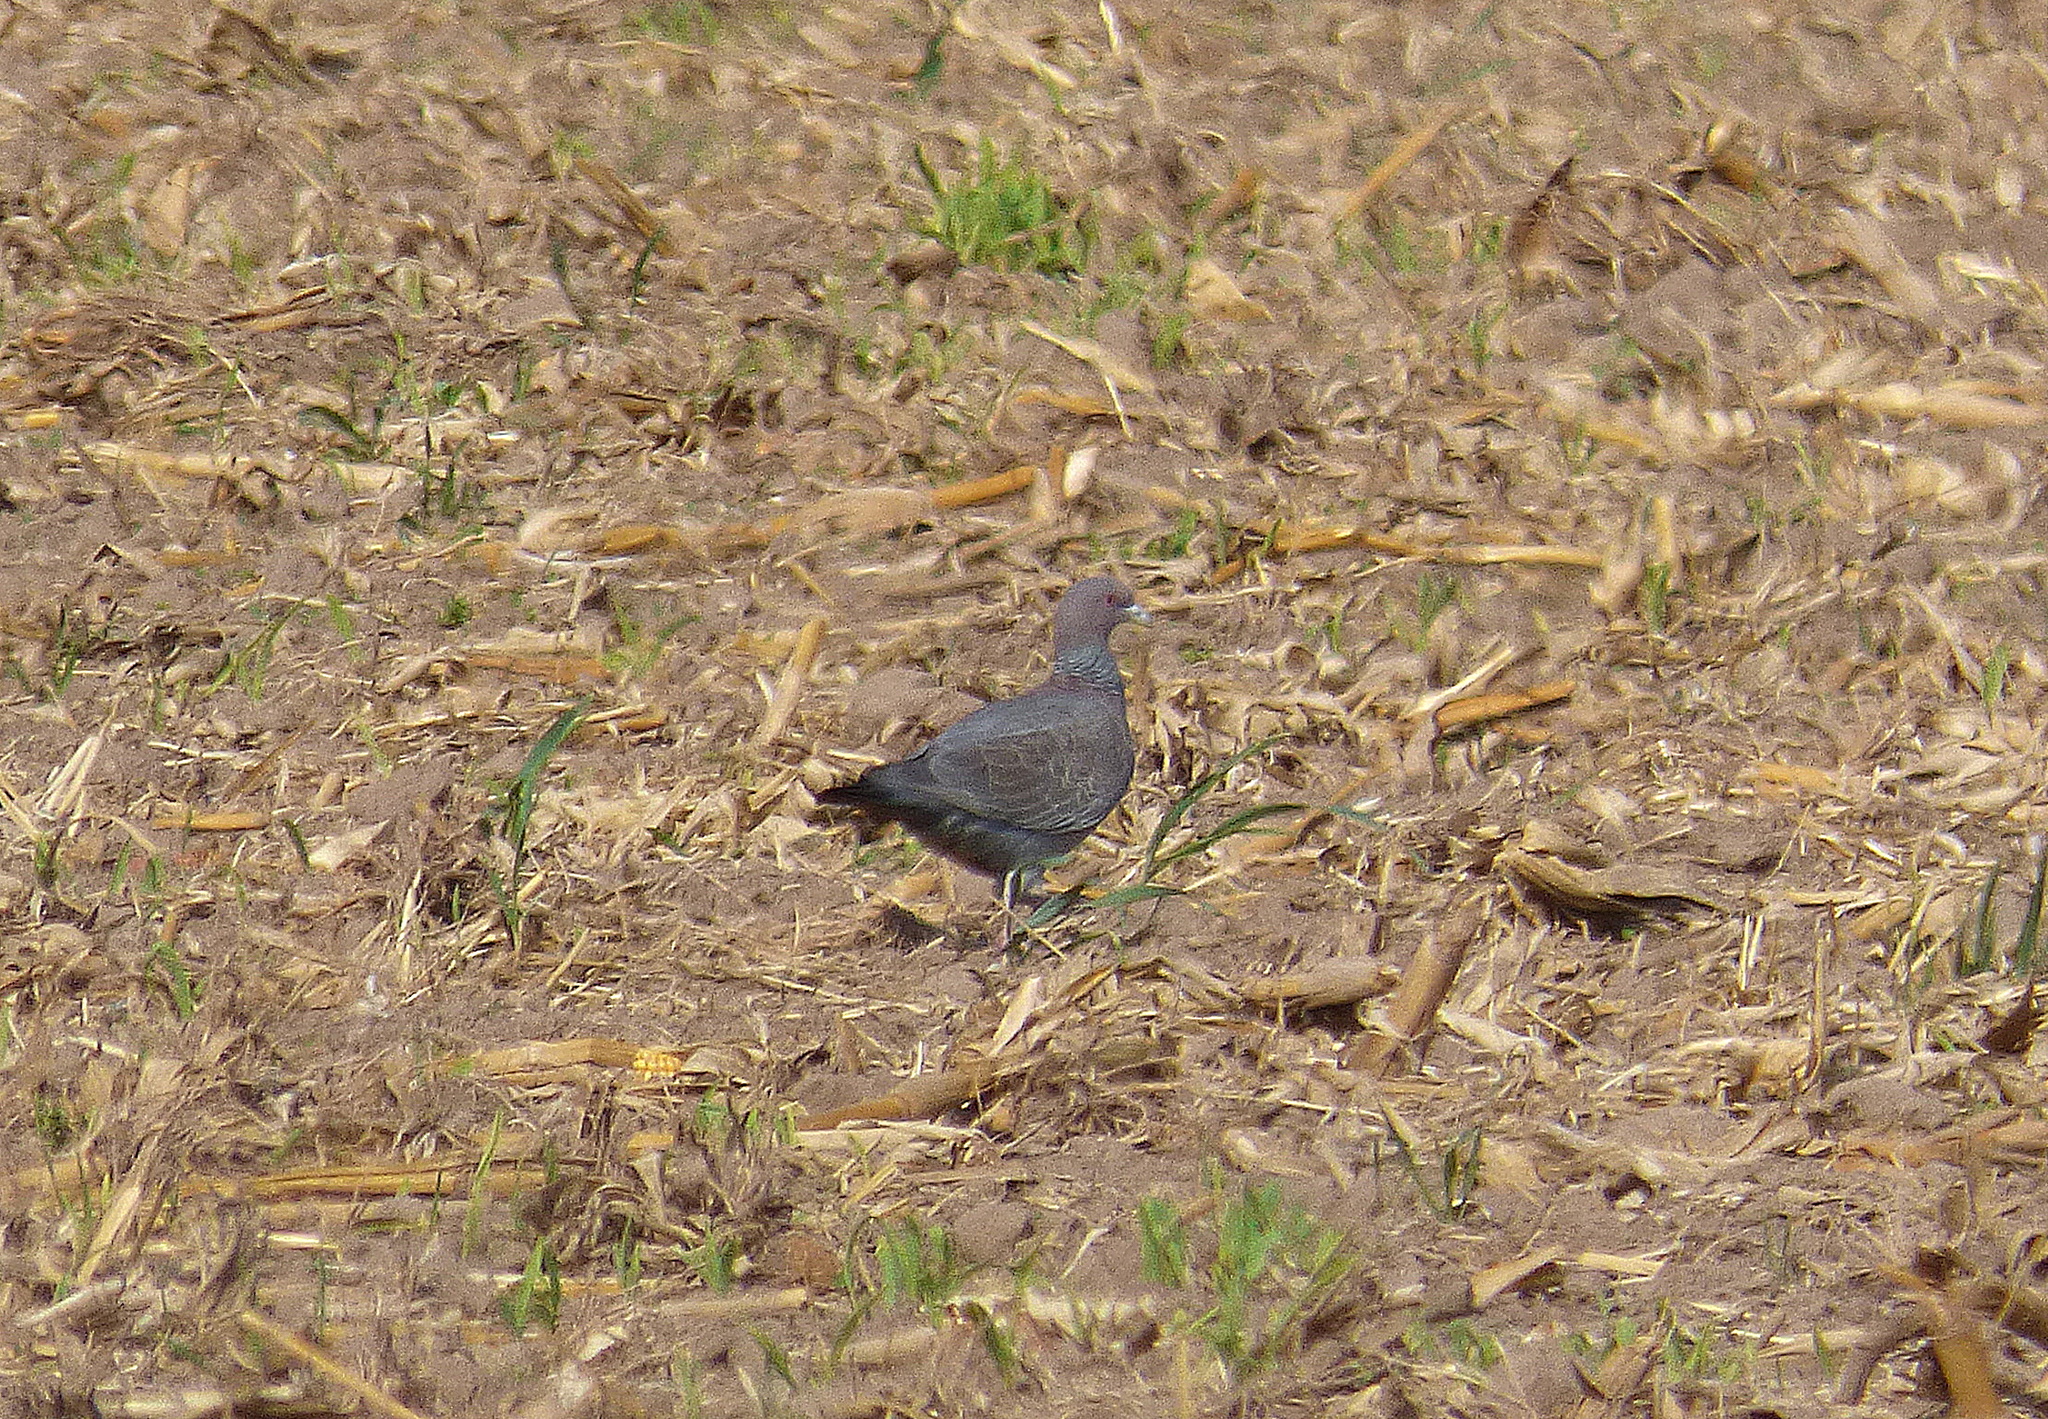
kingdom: Animalia
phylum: Chordata
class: Aves
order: Columbiformes
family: Columbidae
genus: Patagioenas
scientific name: Patagioenas picazuro
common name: Picazuro pigeon
